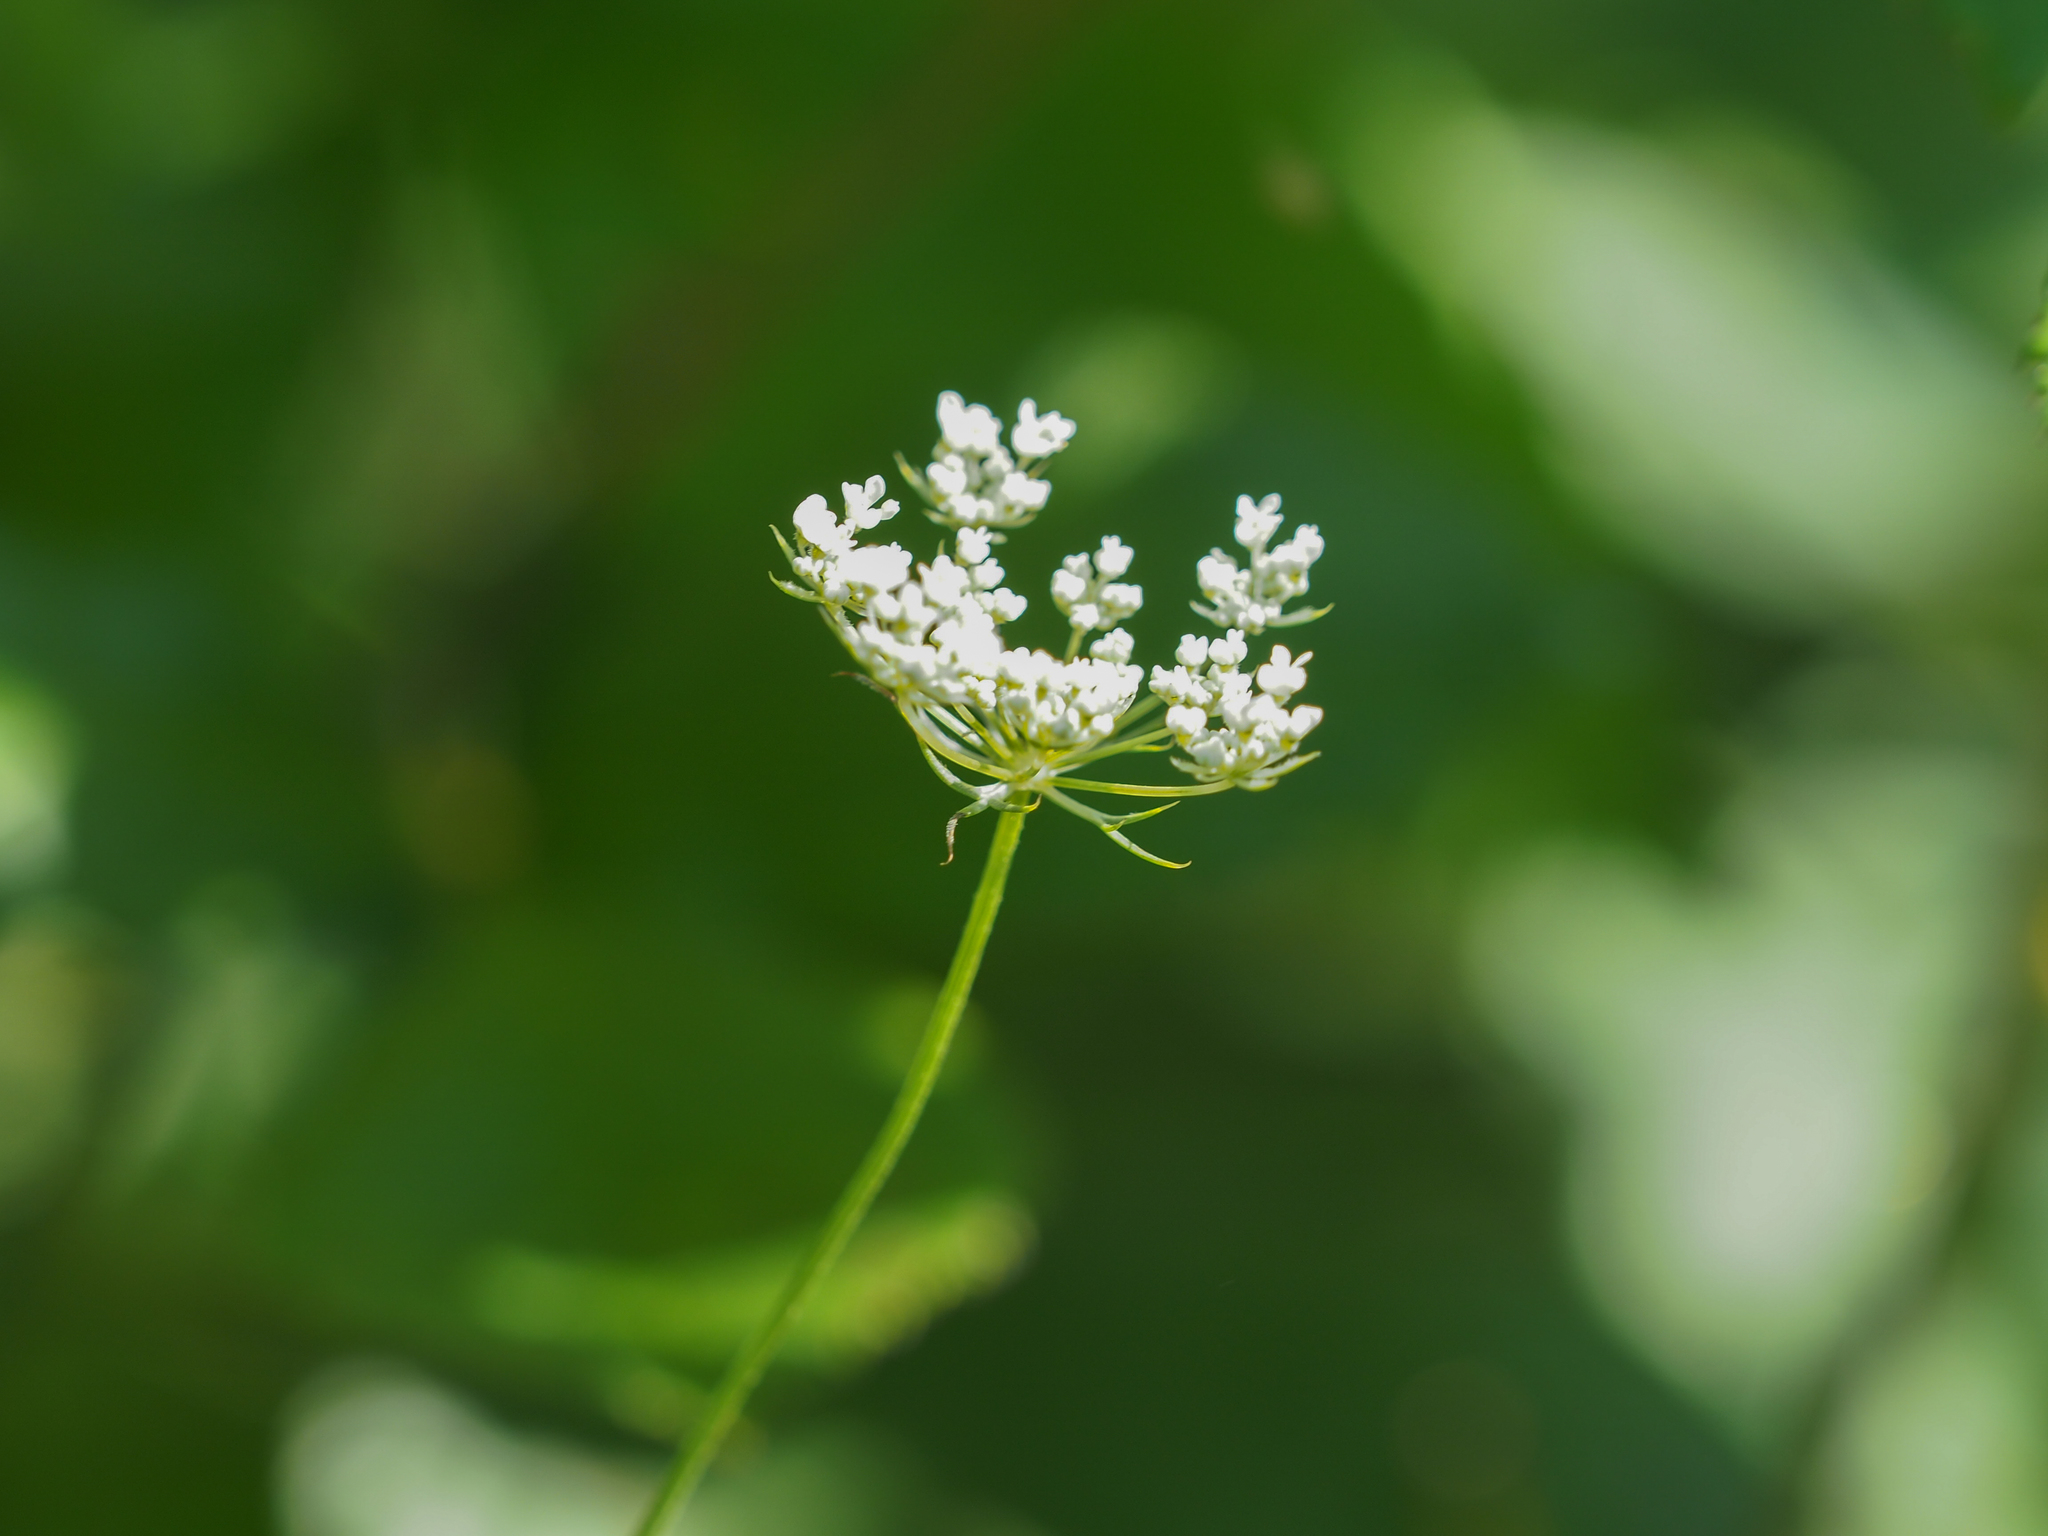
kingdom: Plantae
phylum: Tracheophyta
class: Magnoliopsida
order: Apiales
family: Apiaceae
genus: Daucus
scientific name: Daucus carota
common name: Wild carrot
